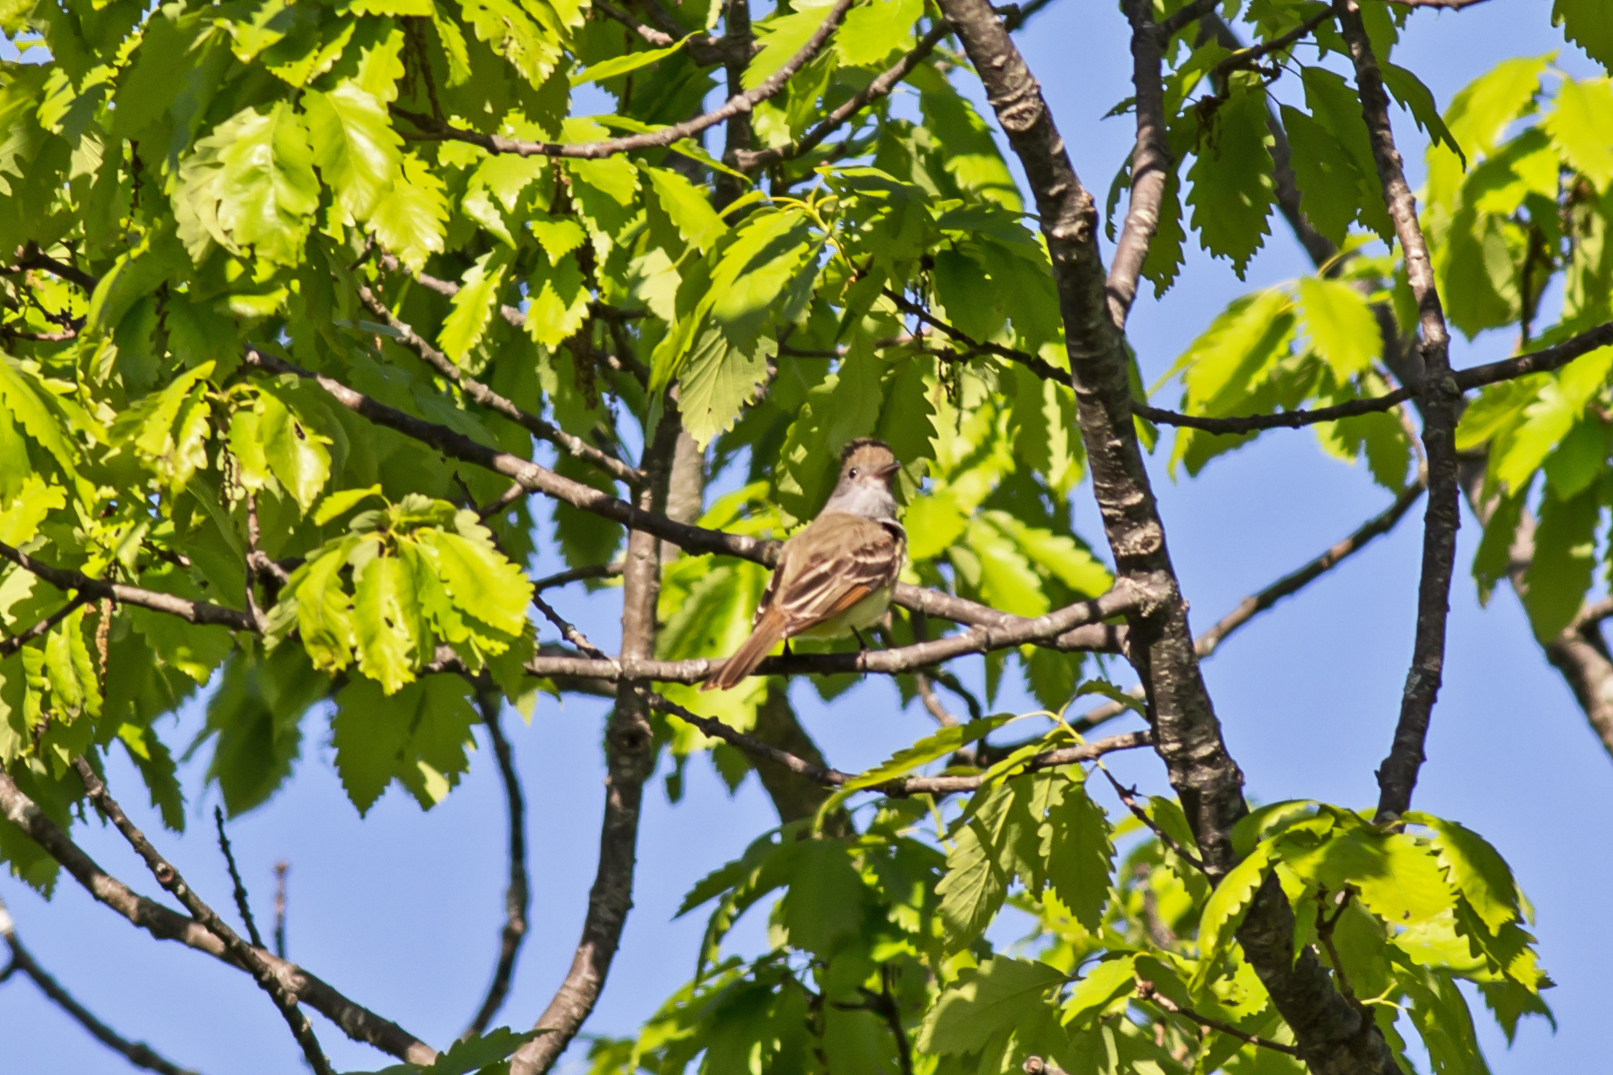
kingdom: Animalia
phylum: Chordata
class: Aves
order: Passeriformes
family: Tyrannidae
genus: Myiarchus
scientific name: Myiarchus crinitus
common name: Great crested flycatcher
